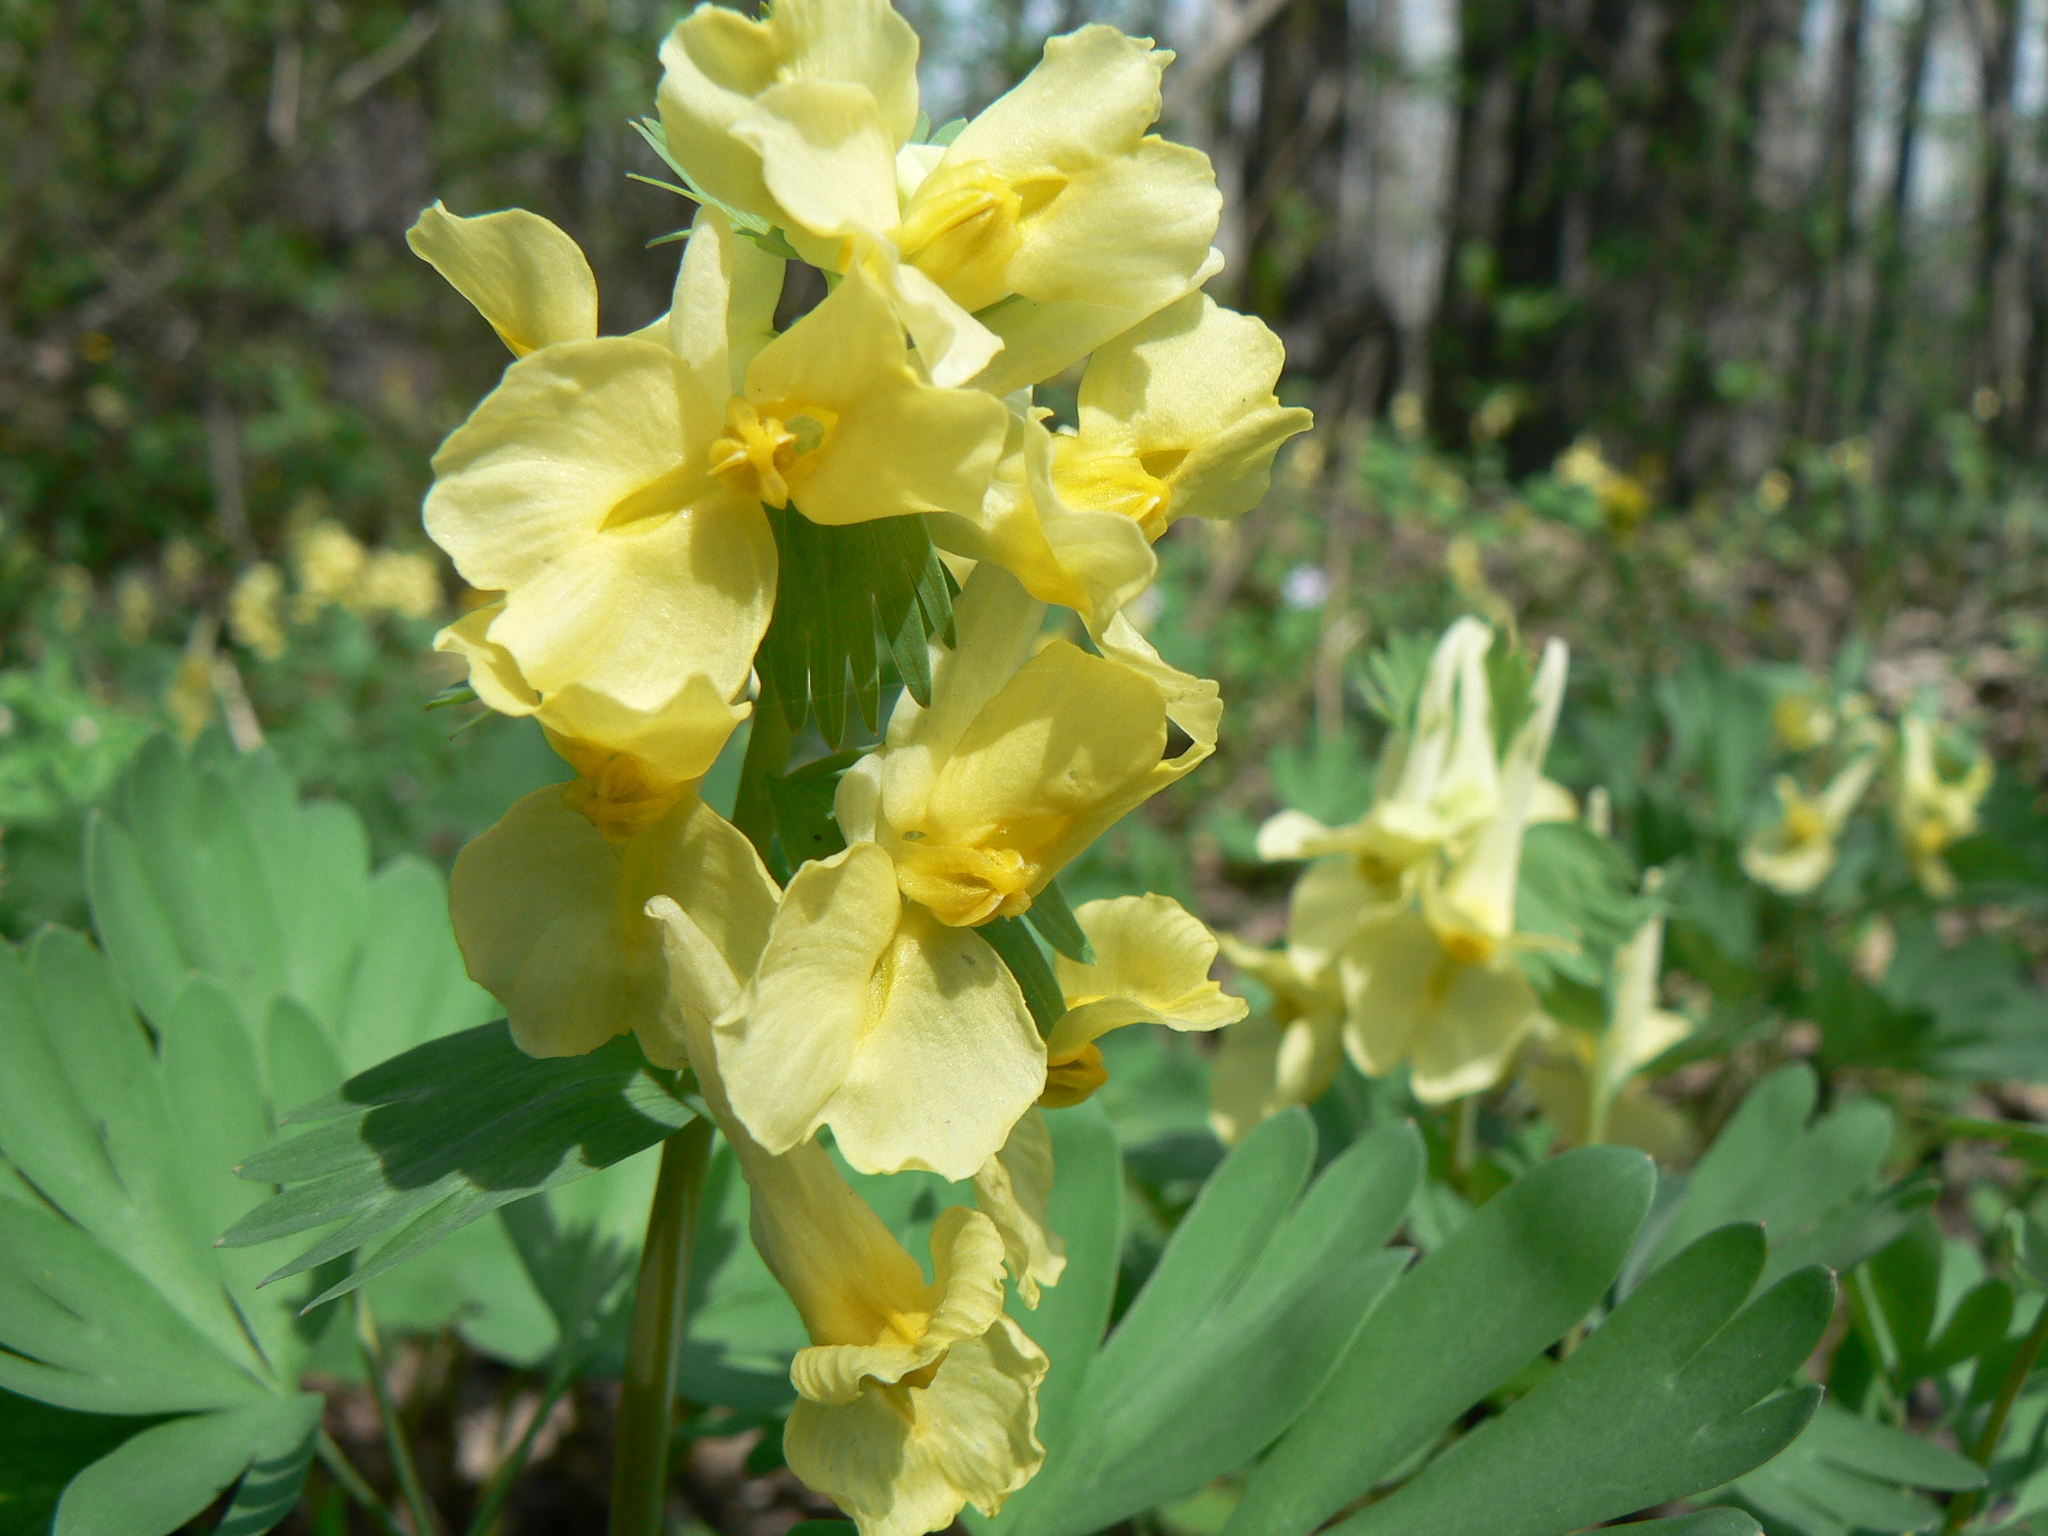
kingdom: Plantae
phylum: Tracheophyta
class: Magnoliopsida
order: Ranunculales
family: Papaveraceae
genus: Corydalis
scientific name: Corydalis bracteata
